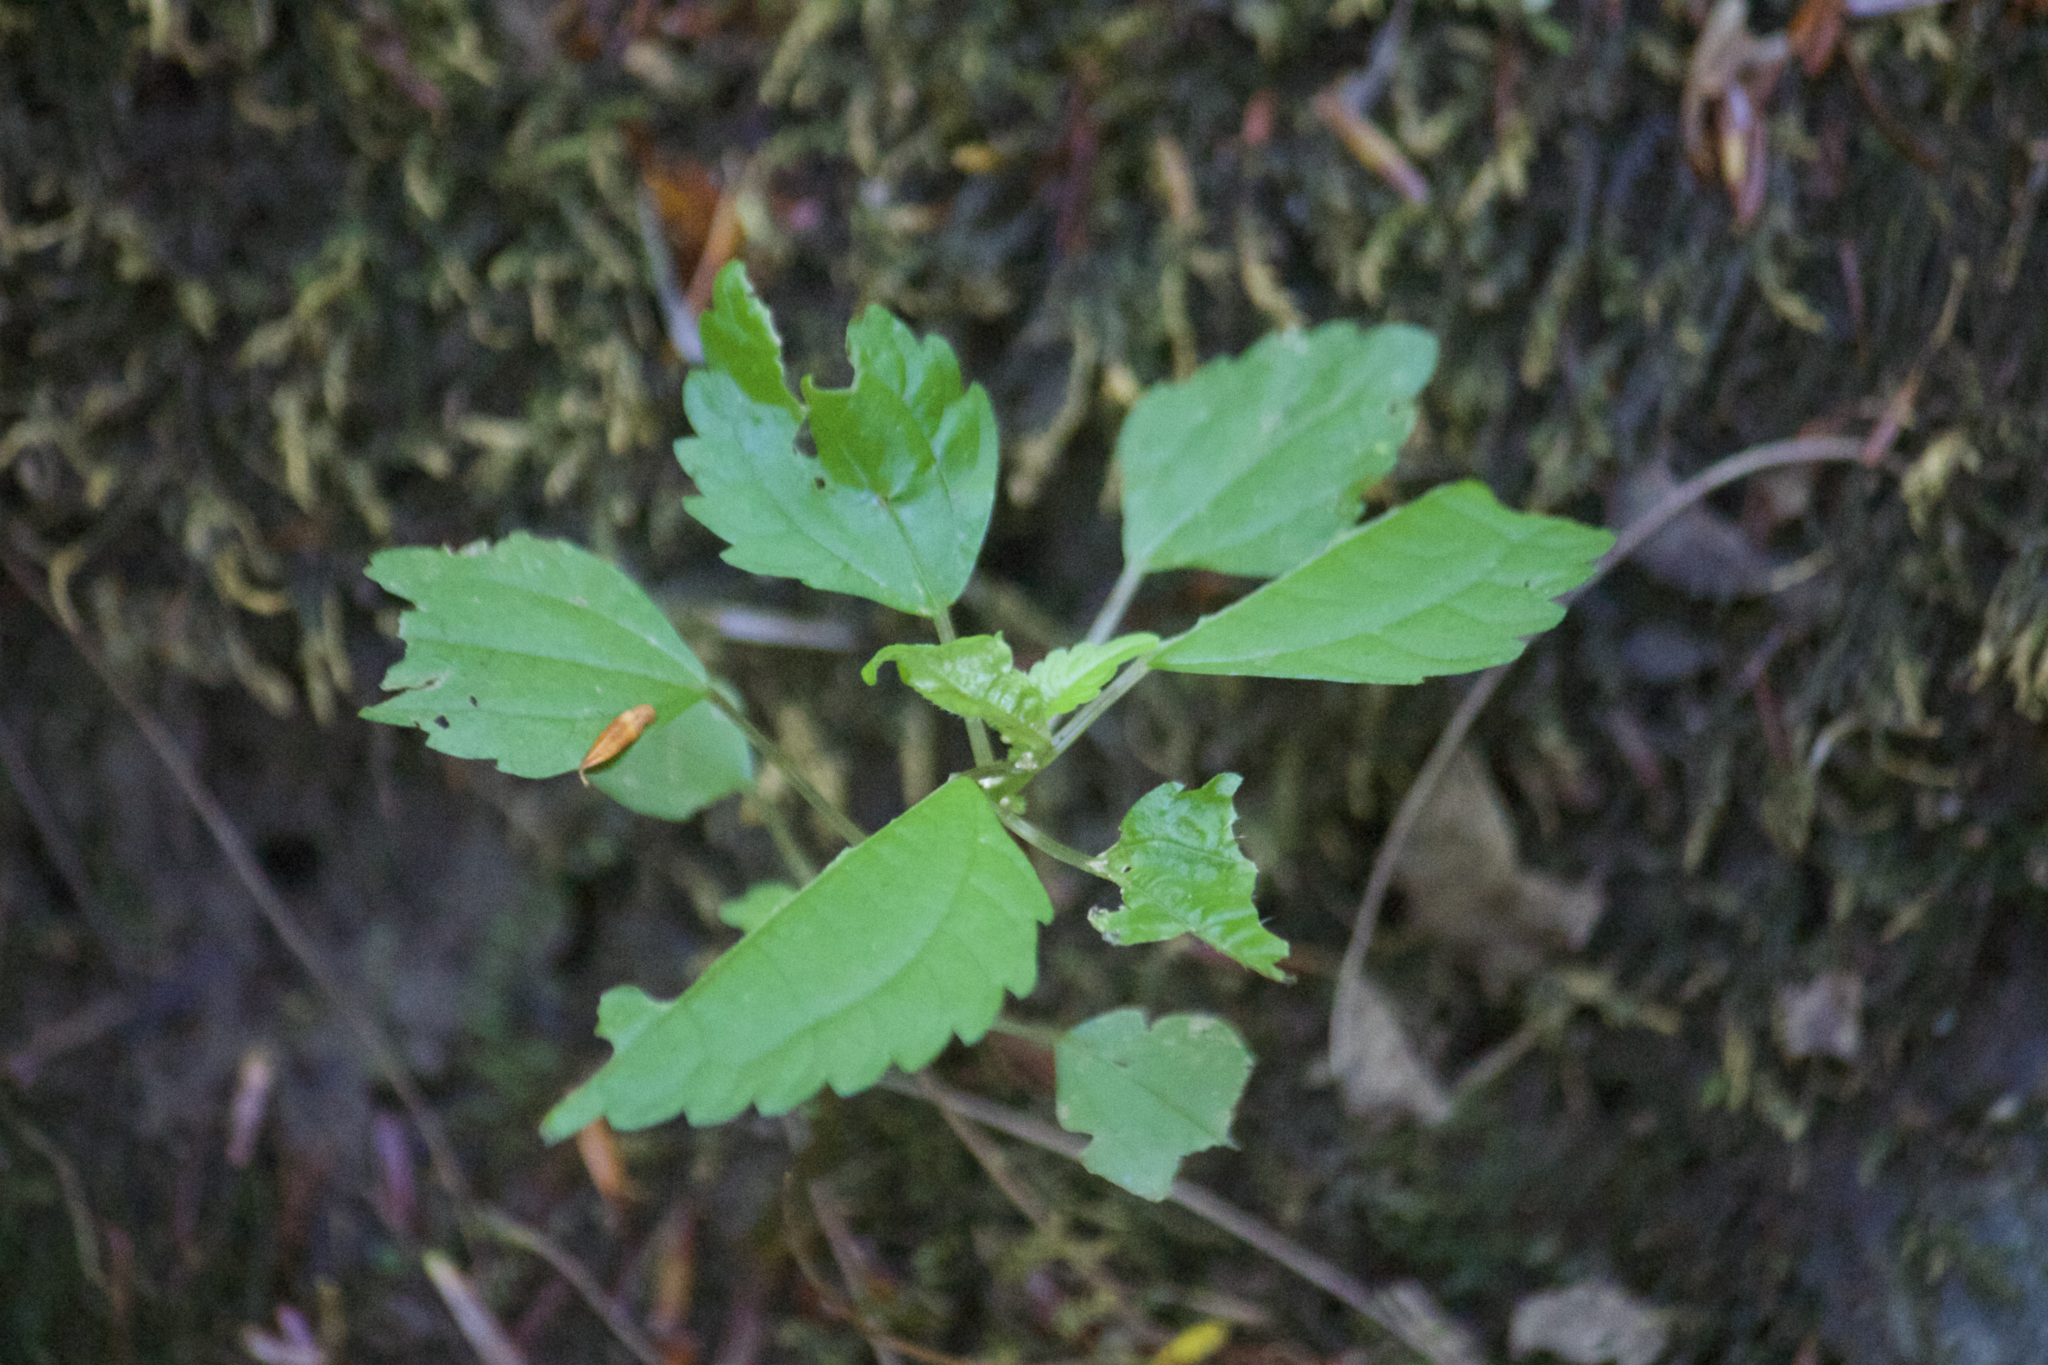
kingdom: Plantae
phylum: Tracheophyta
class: Magnoliopsida
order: Rosales
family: Urticaceae
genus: Pilea
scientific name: Pilea pumila
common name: Clearweed
